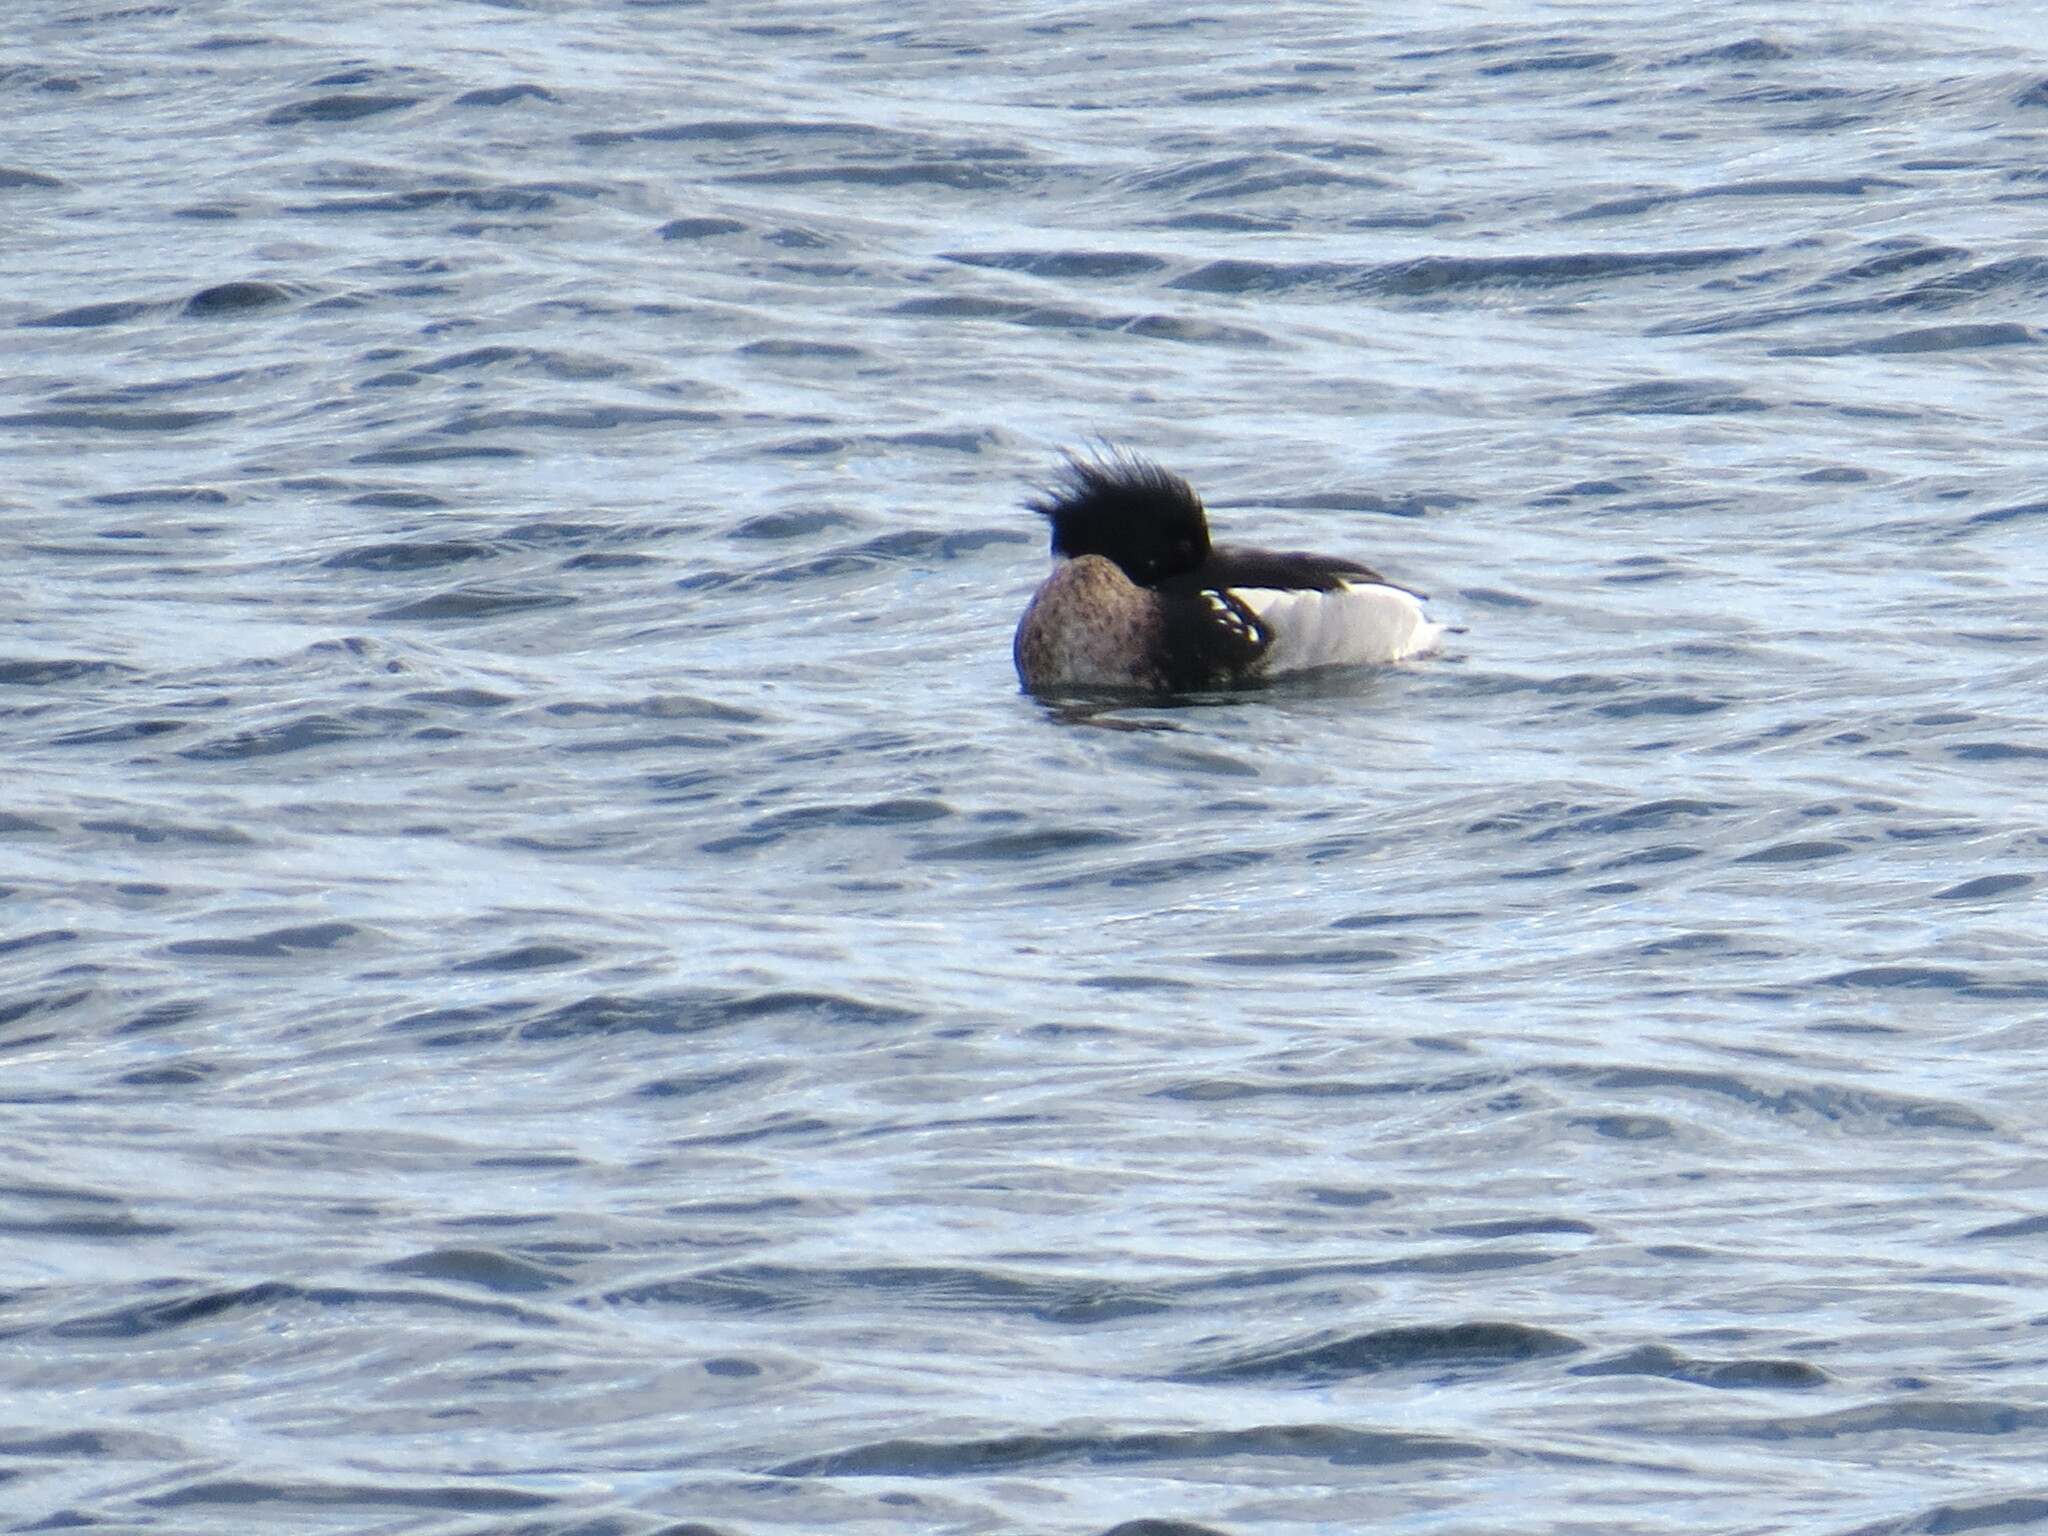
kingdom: Animalia
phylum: Chordata
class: Aves
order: Anseriformes
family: Anatidae
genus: Mergus
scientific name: Mergus serrator
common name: Red-breasted merganser
